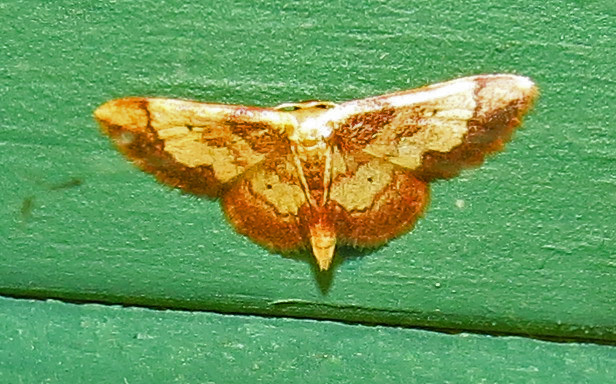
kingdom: Animalia
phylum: Arthropoda
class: Insecta
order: Lepidoptera
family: Geometridae
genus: Idaea
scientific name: Idaea demissaria
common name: Red-bordered wave
